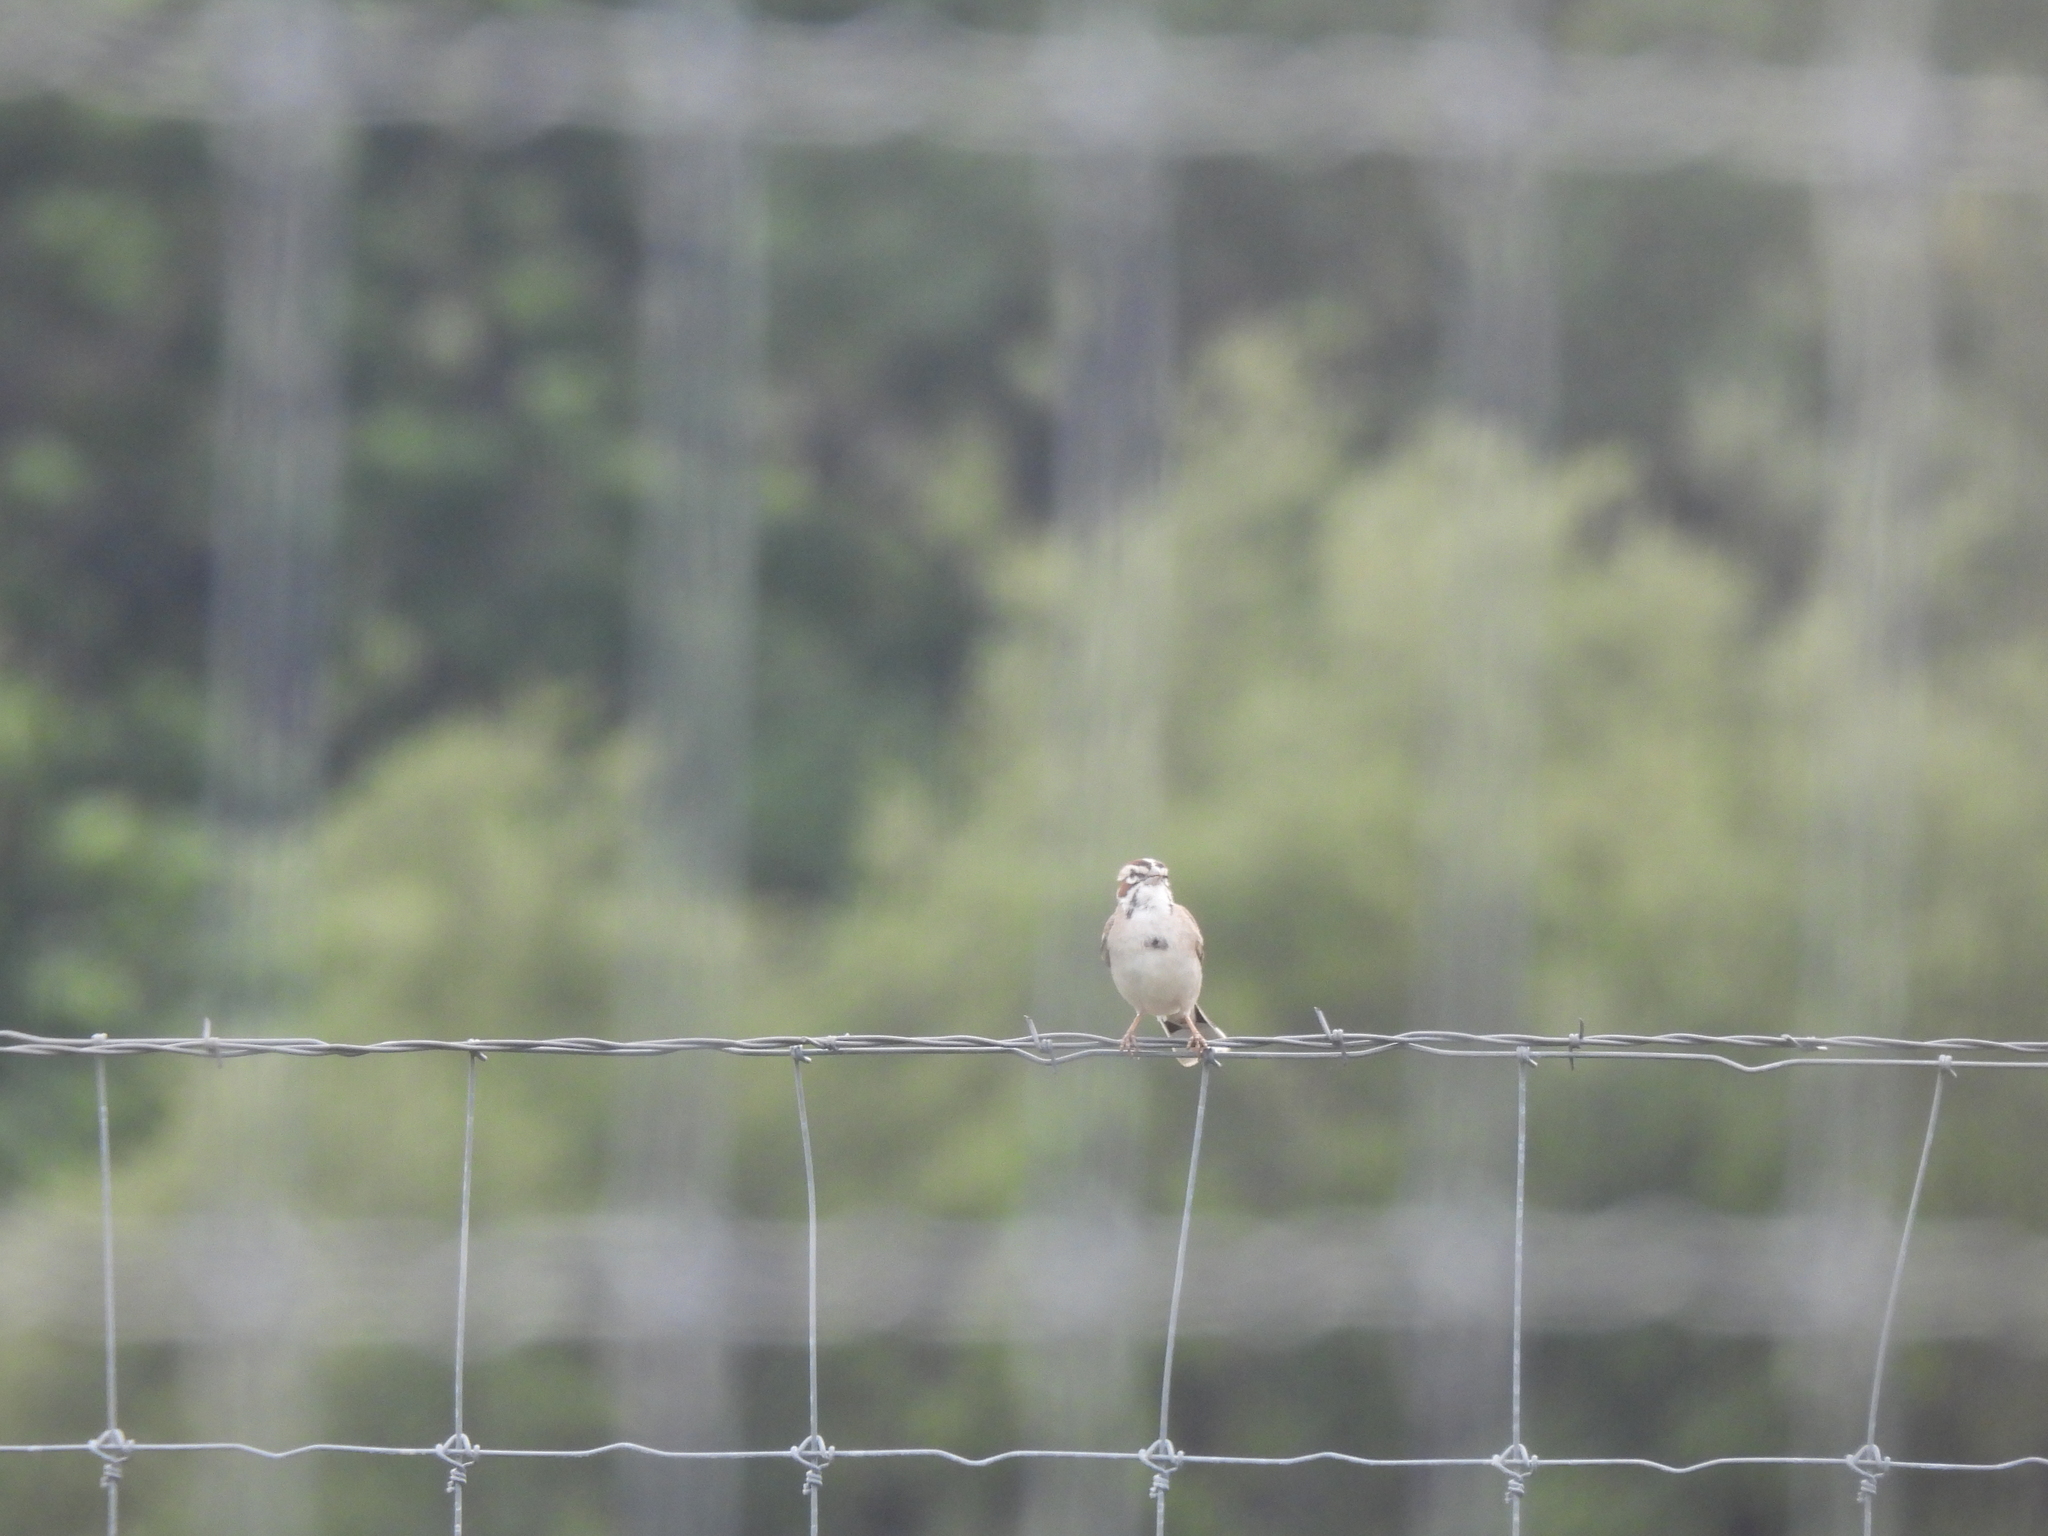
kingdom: Animalia
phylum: Chordata
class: Aves
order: Passeriformes
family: Passerellidae
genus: Chondestes
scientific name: Chondestes grammacus
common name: Lark sparrow
